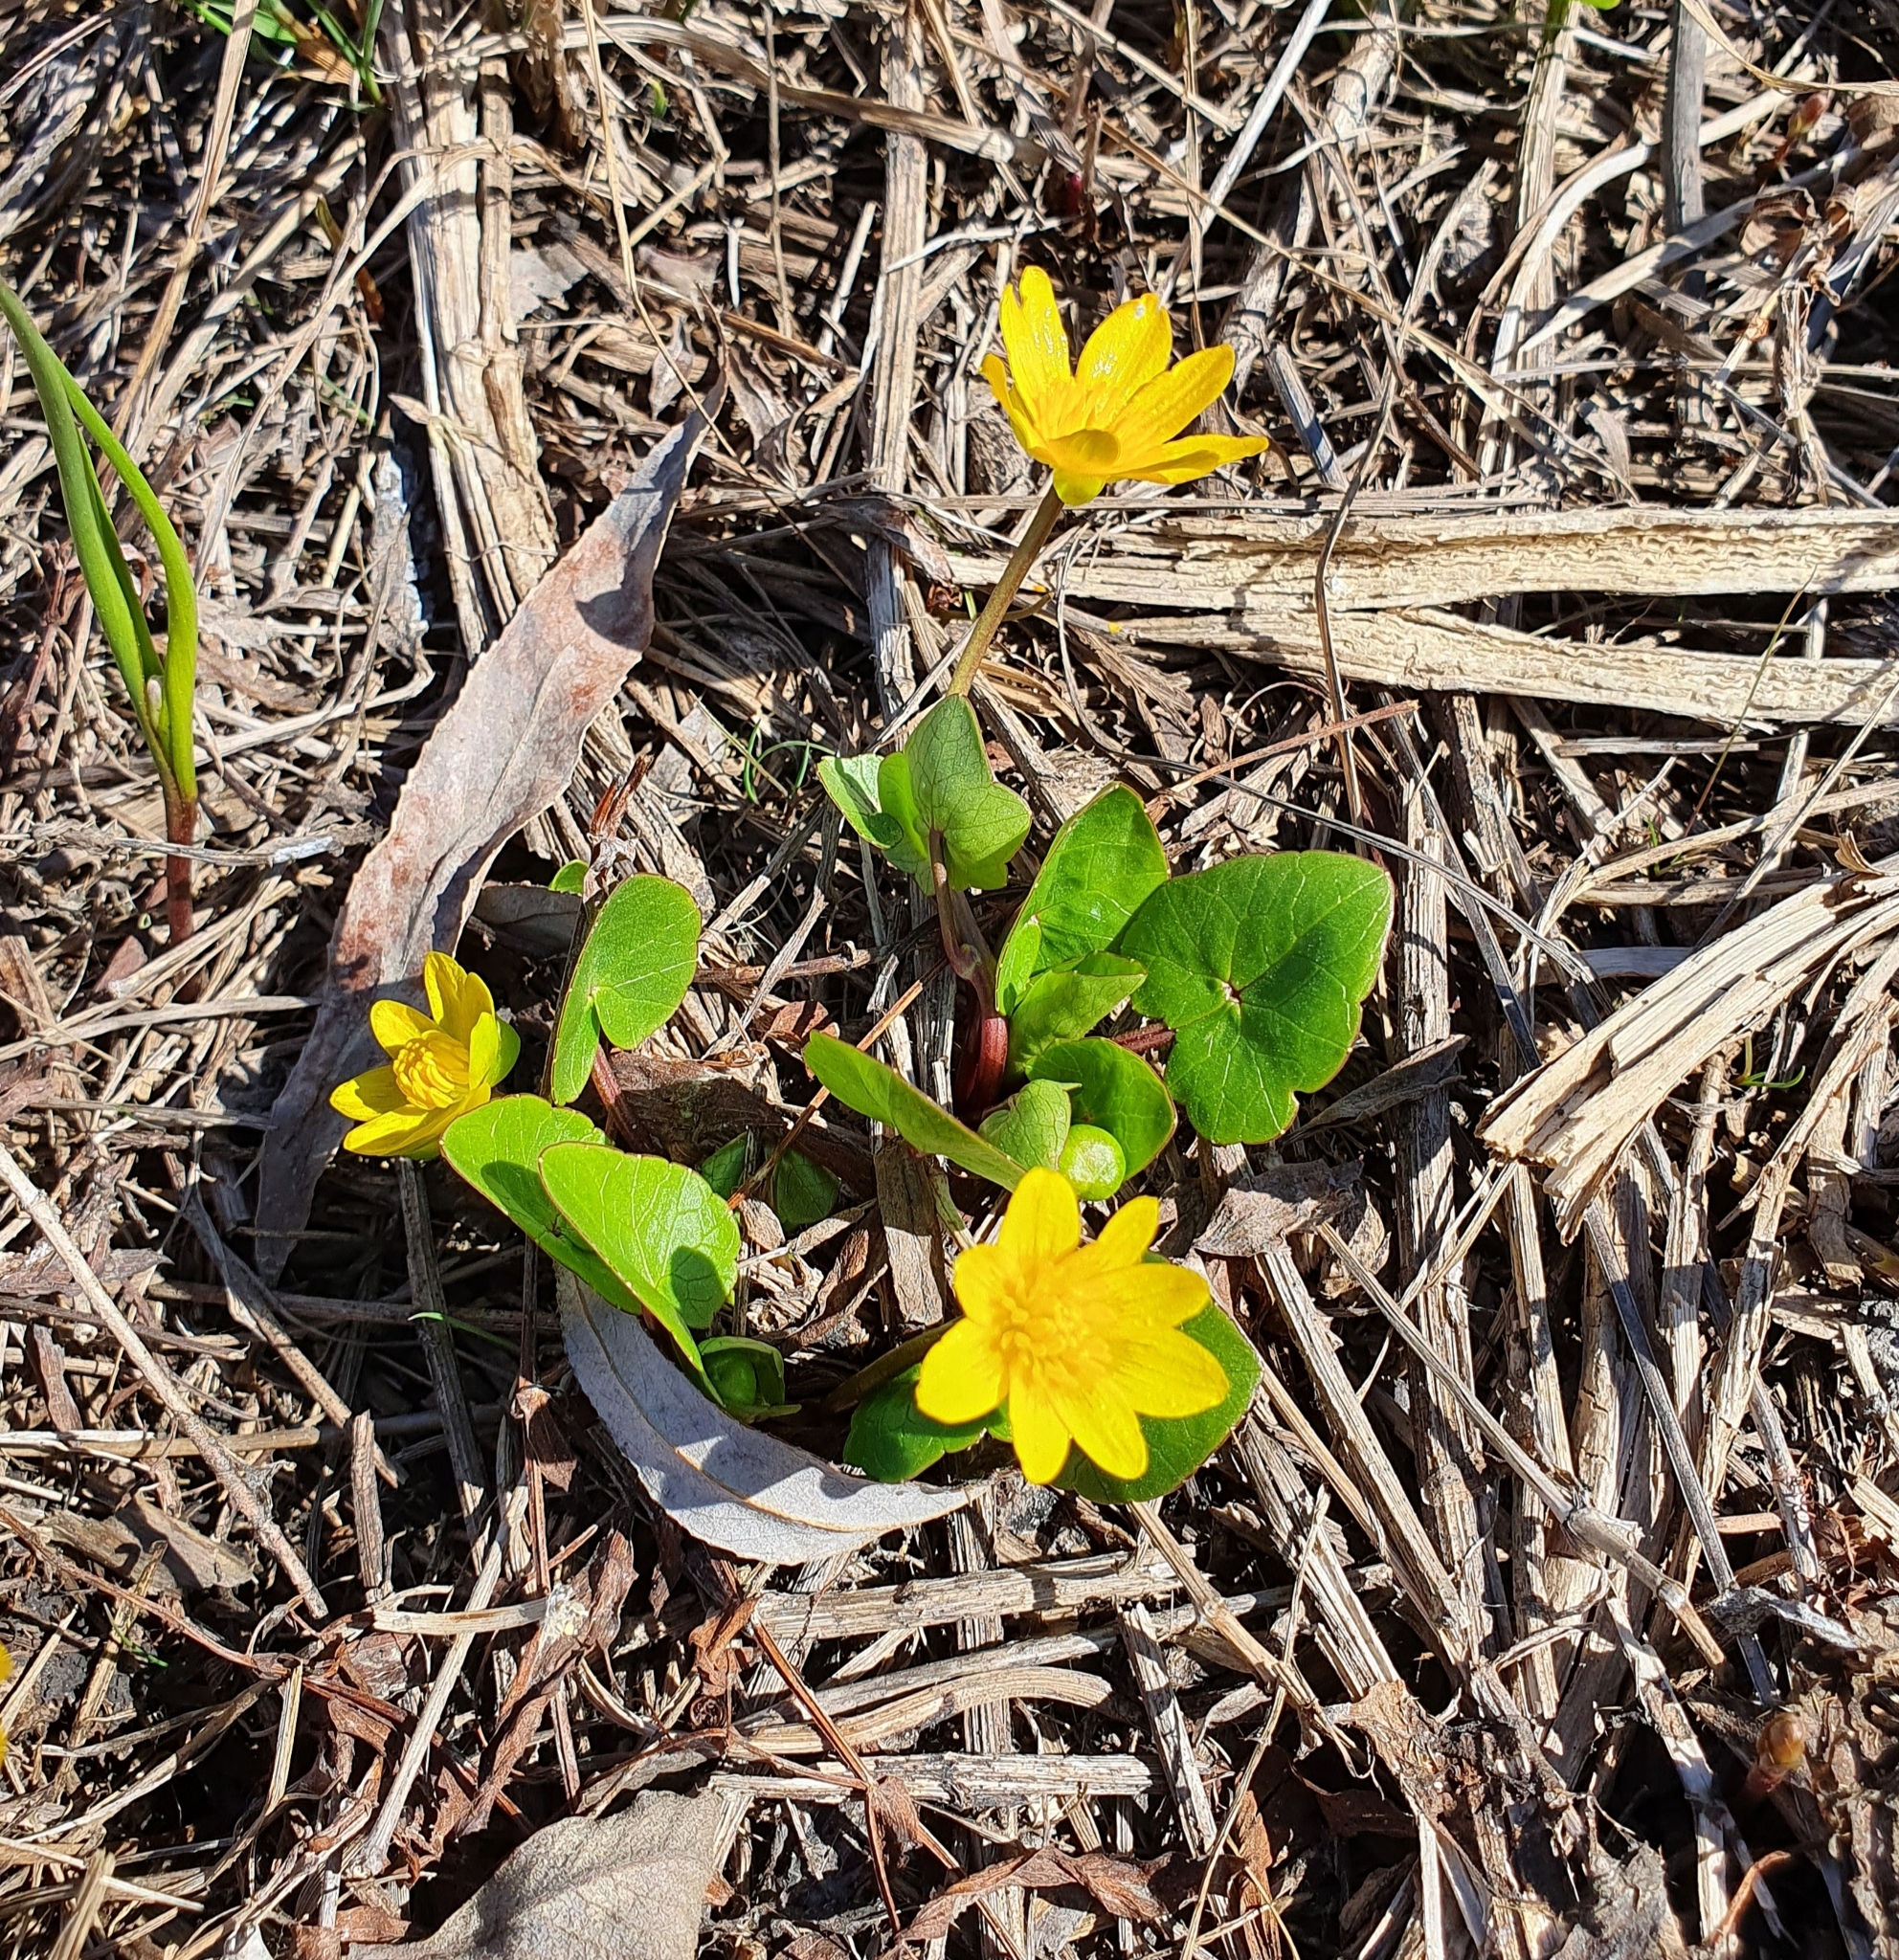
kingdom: Plantae
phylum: Tracheophyta
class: Magnoliopsida
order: Ranunculales
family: Ranunculaceae
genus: Ficaria
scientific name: Ficaria verna
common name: Lesser celandine
